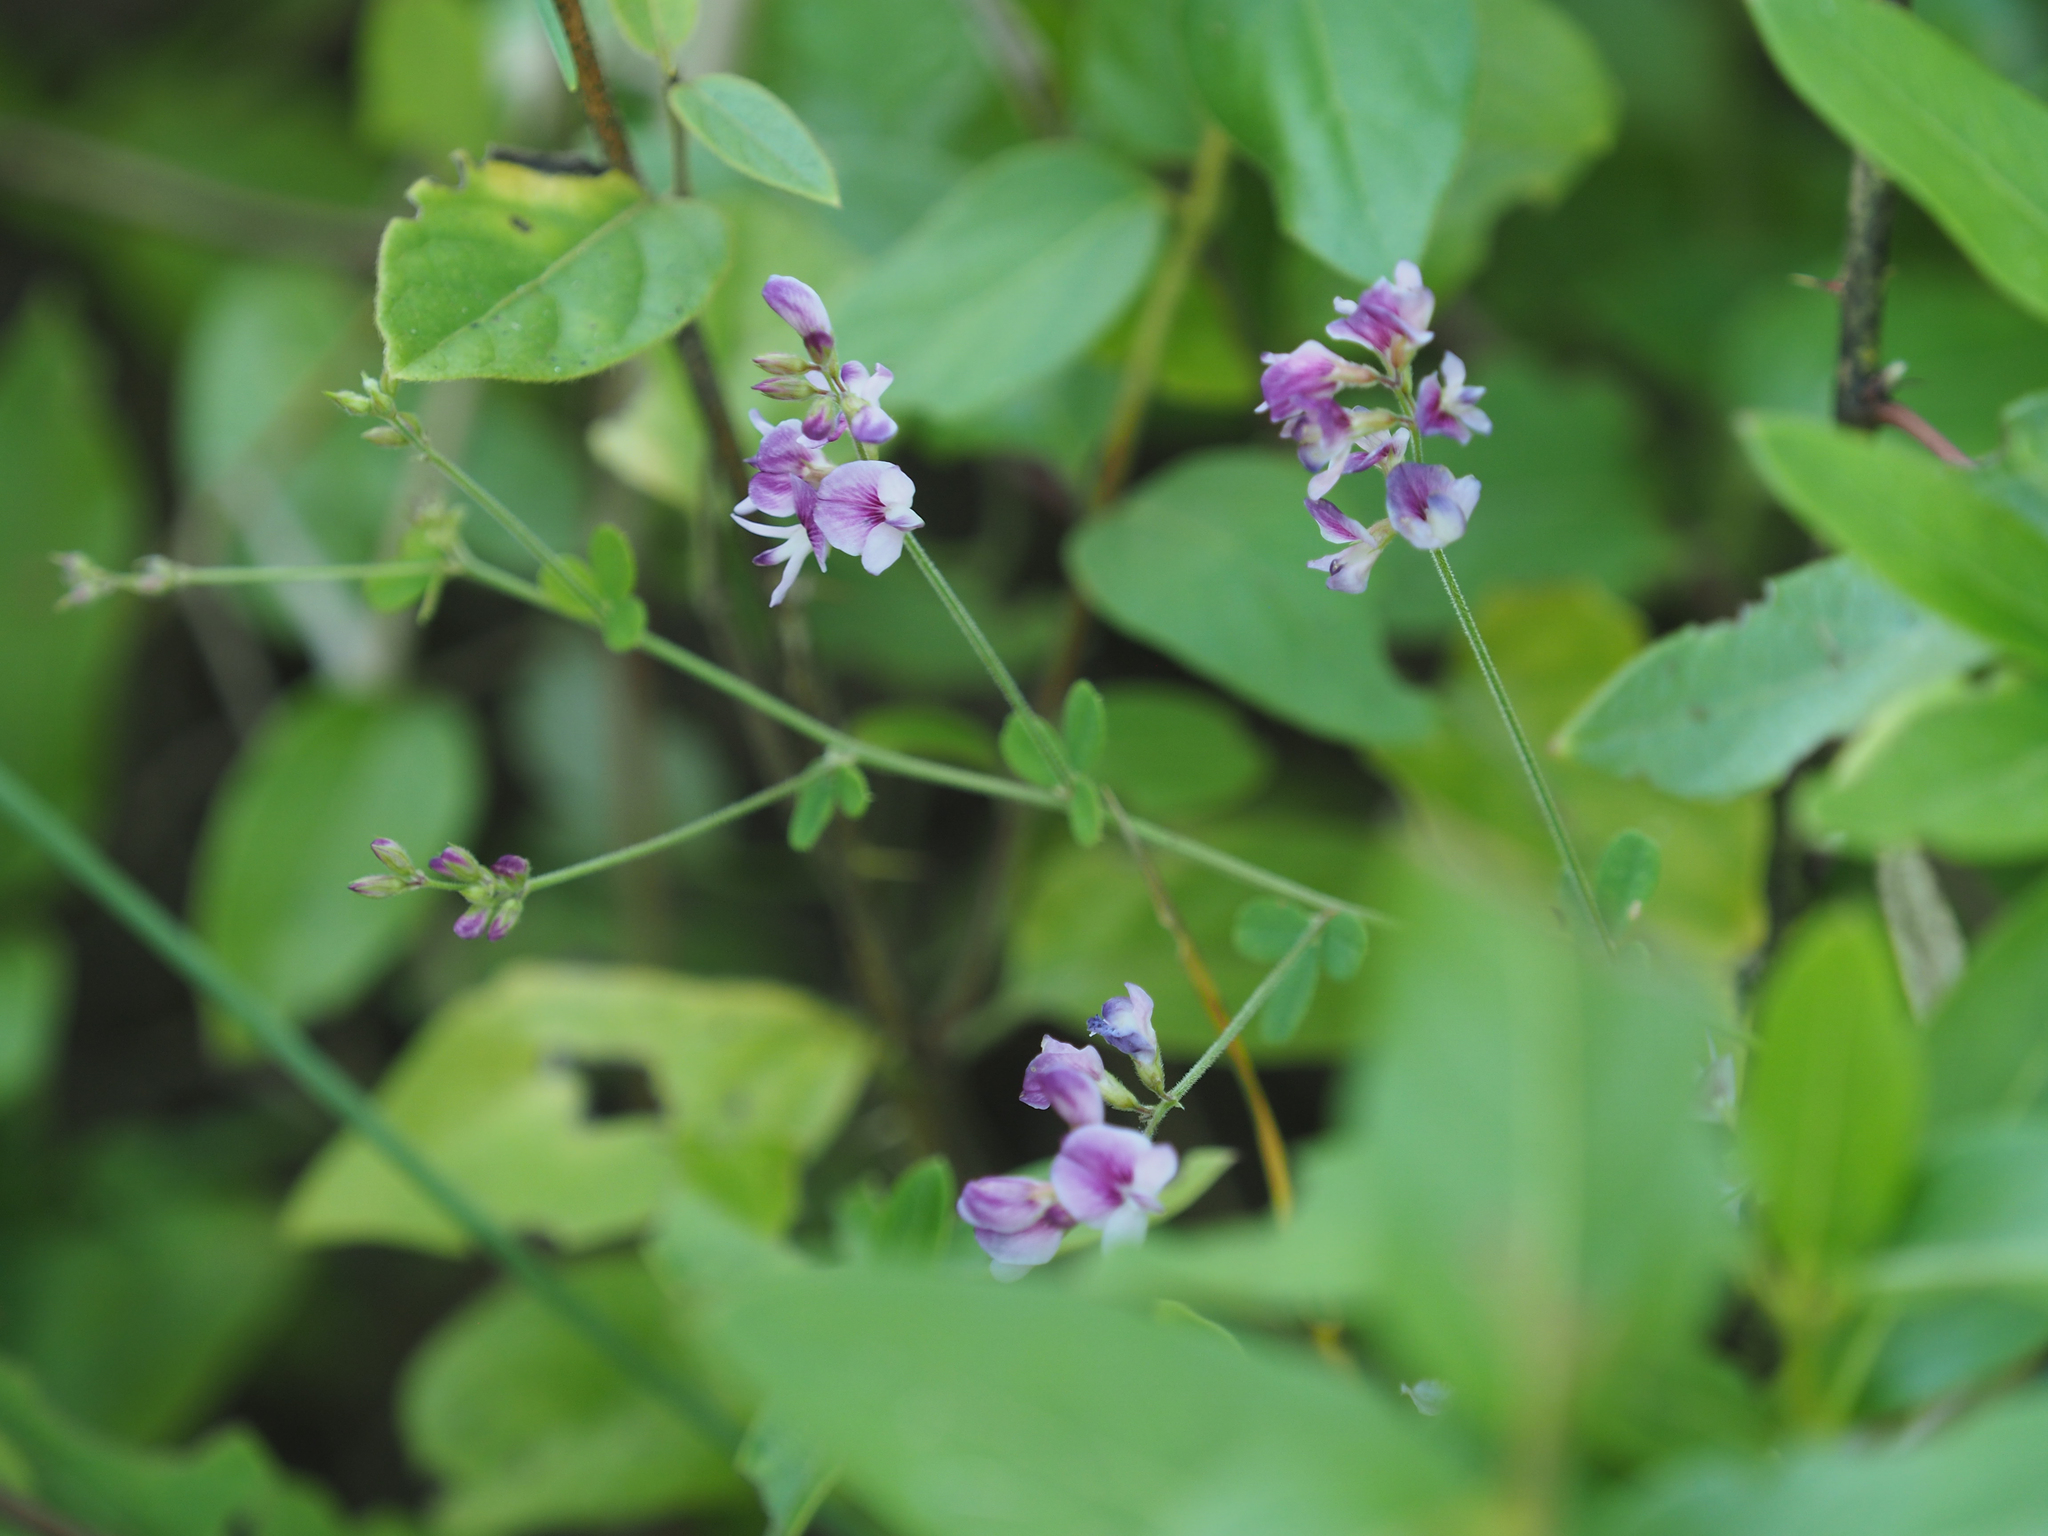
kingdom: Plantae
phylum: Tracheophyta
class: Magnoliopsida
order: Fabales
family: Fabaceae
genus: Lespedeza
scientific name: Lespedeza procumbens
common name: Downy trailing bush-clover
